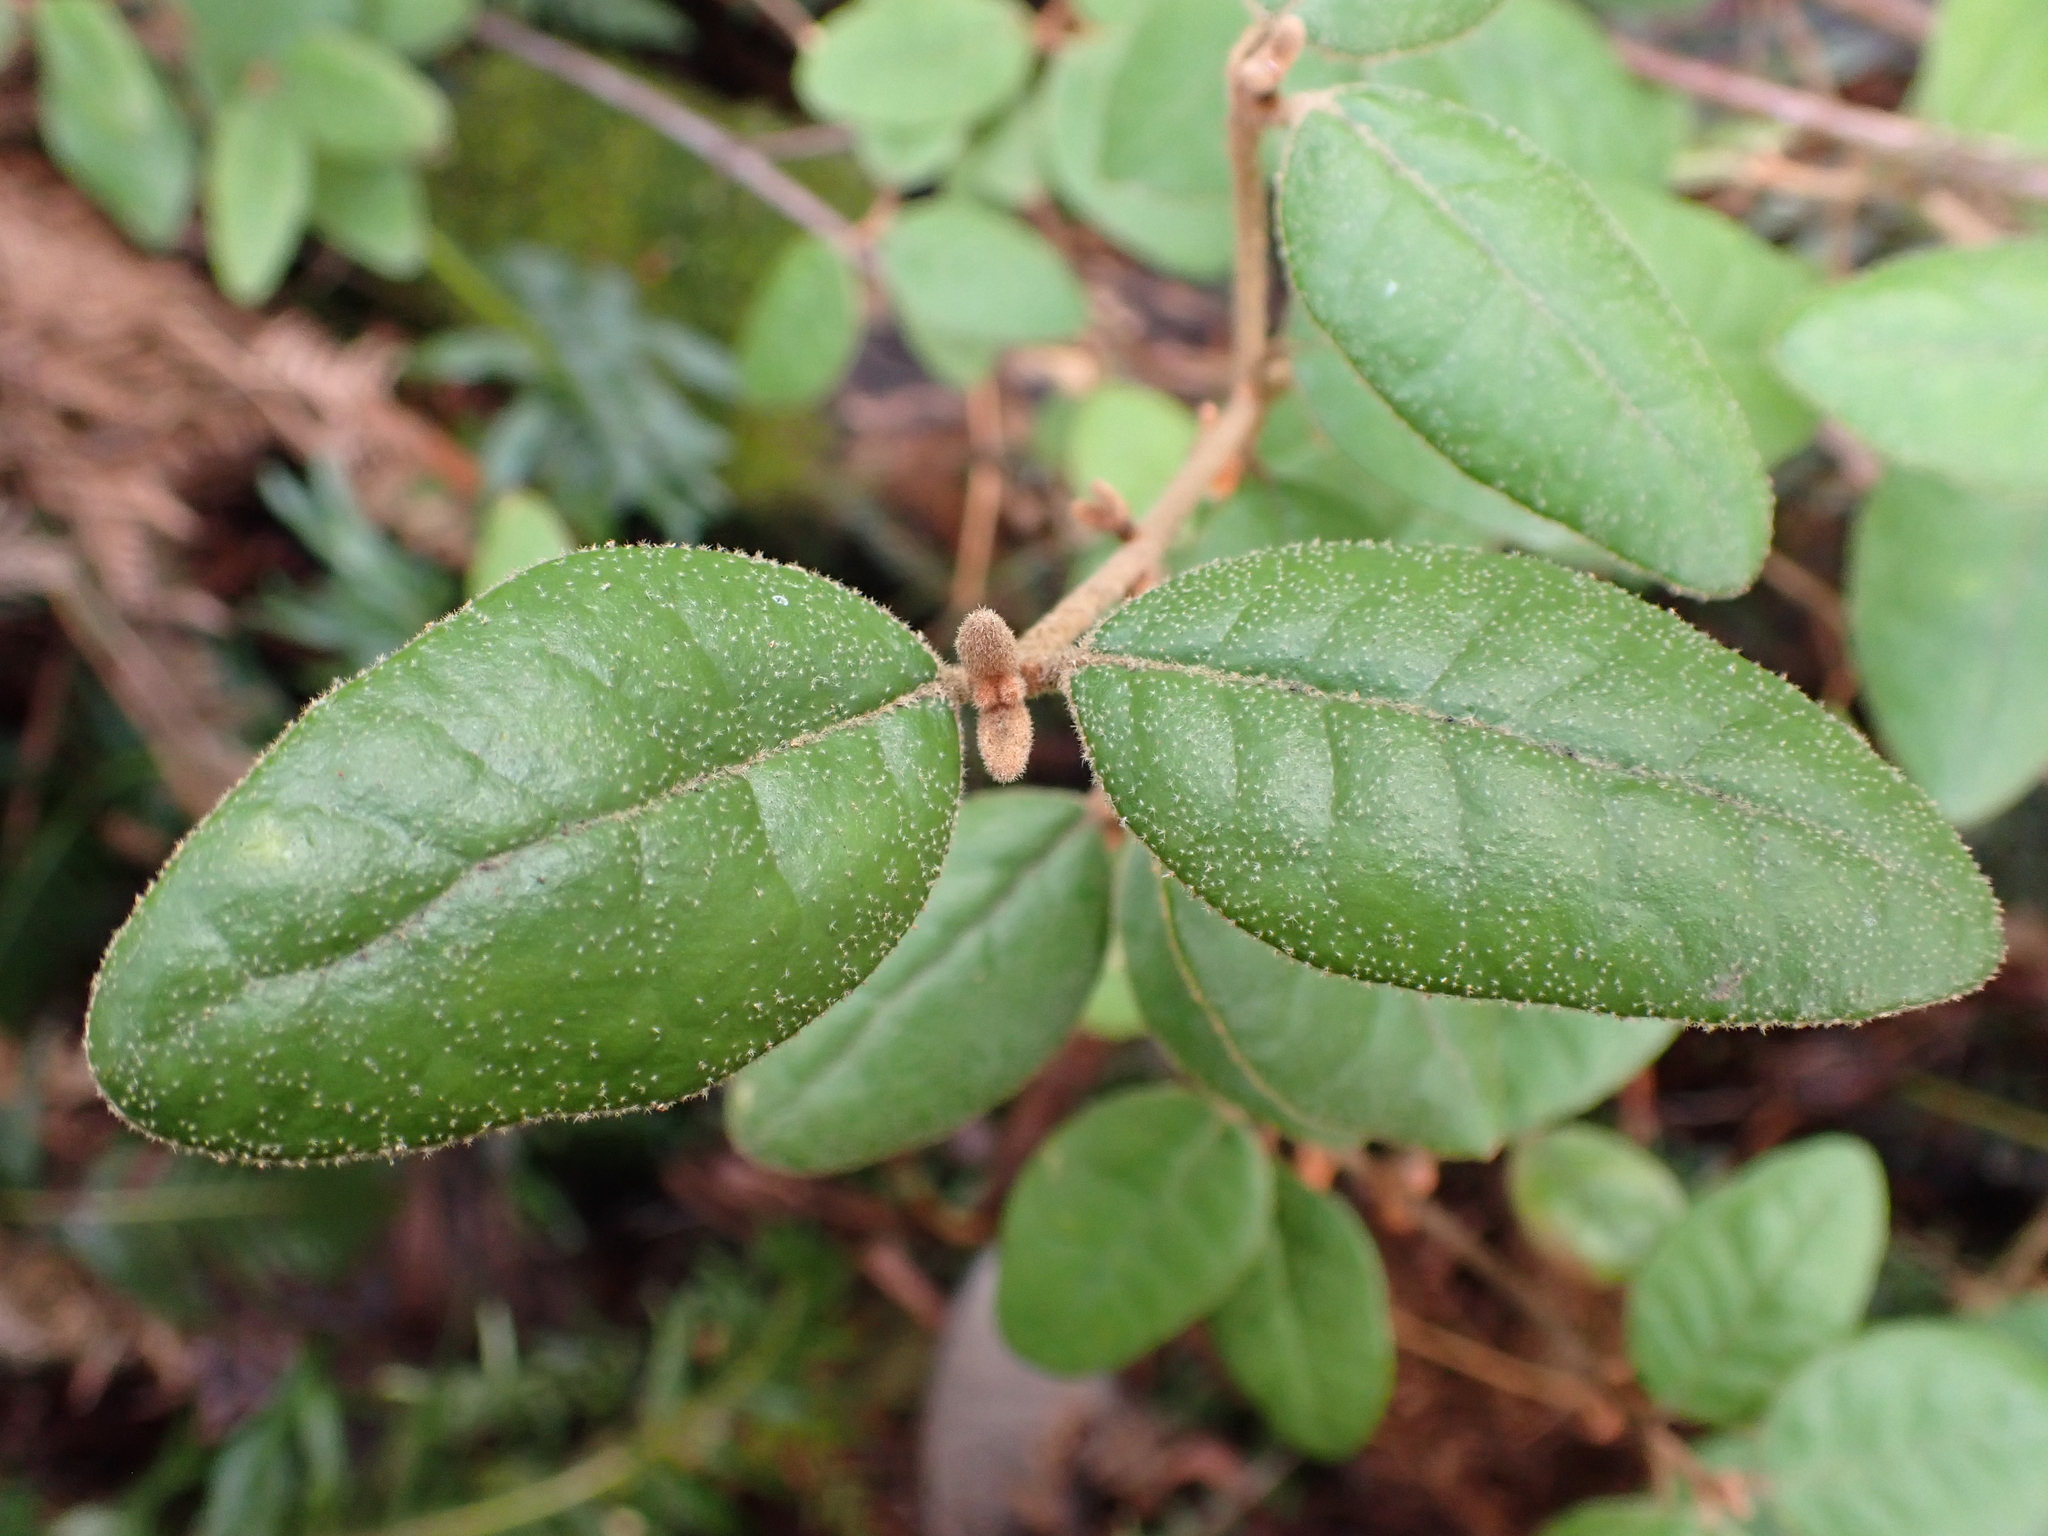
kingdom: Plantae
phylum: Tracheophyta
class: Magnoliopsida
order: Sapindales
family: Rutaceae
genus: Correa
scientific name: Correa lawrenceana
